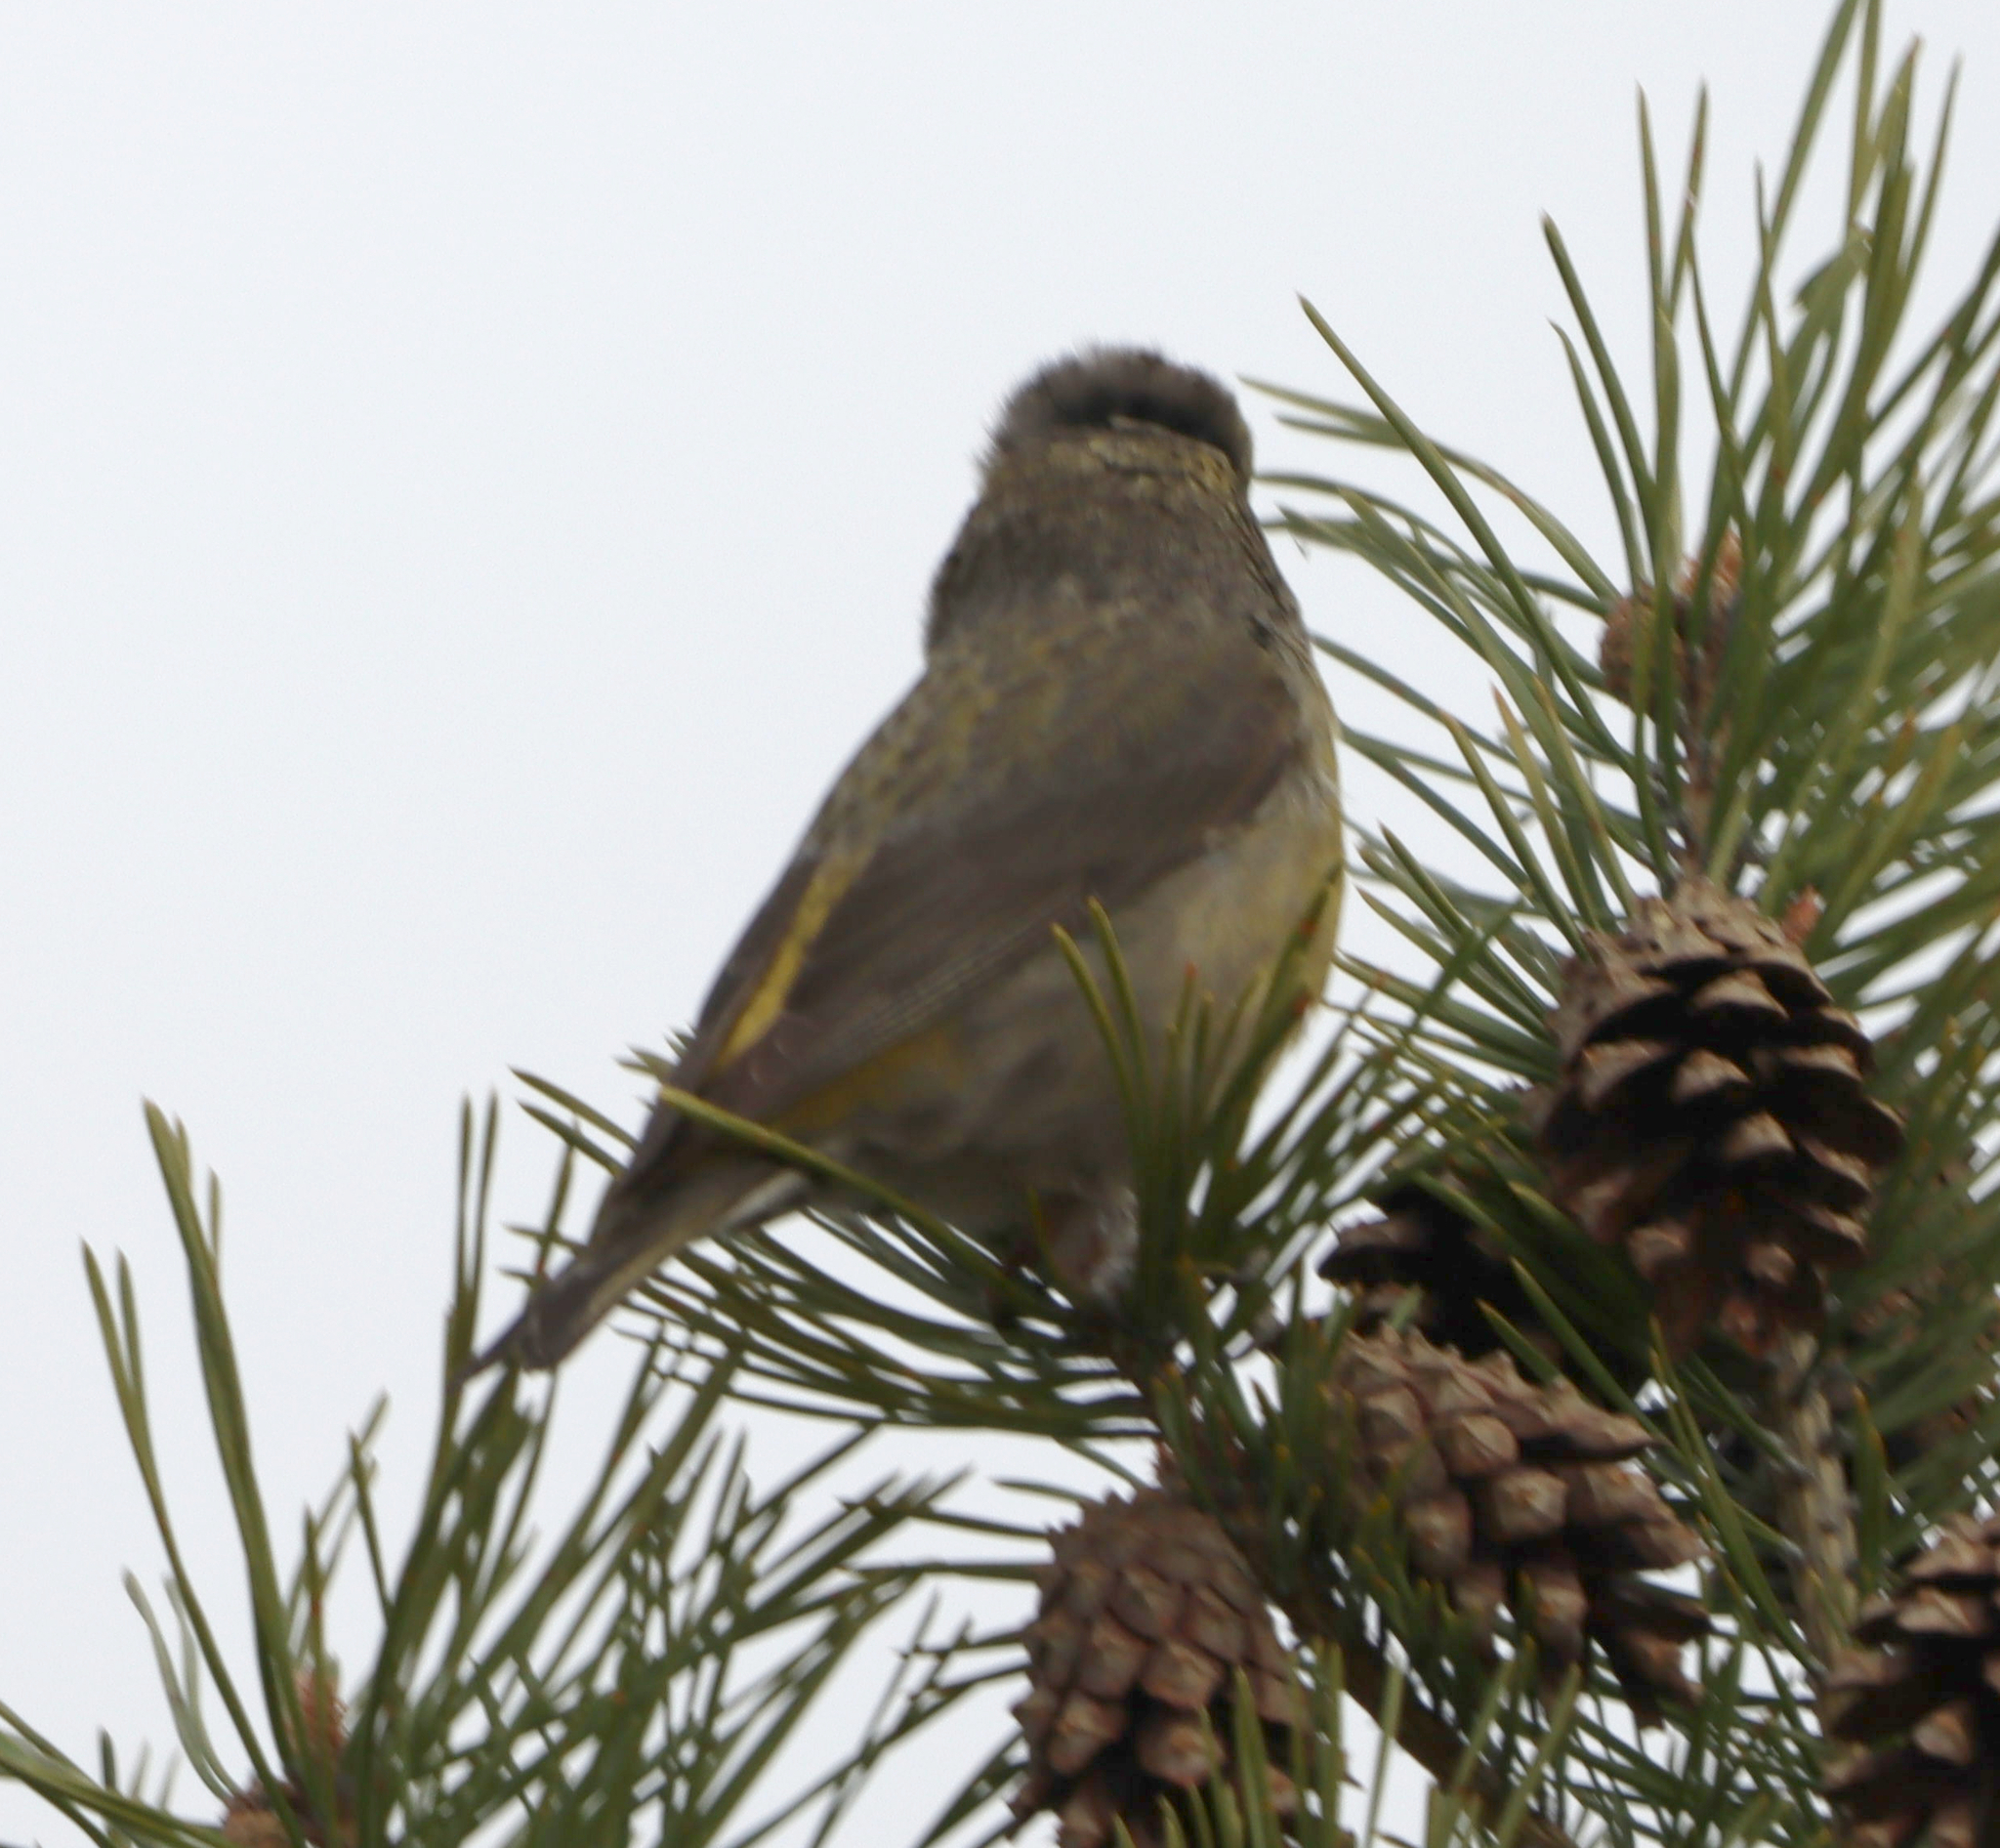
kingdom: Animalia
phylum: Chordata
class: Aves
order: Passeriformes
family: Fringillidae
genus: Loxia
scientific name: Loxia curvirostra
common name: Red crossbill
